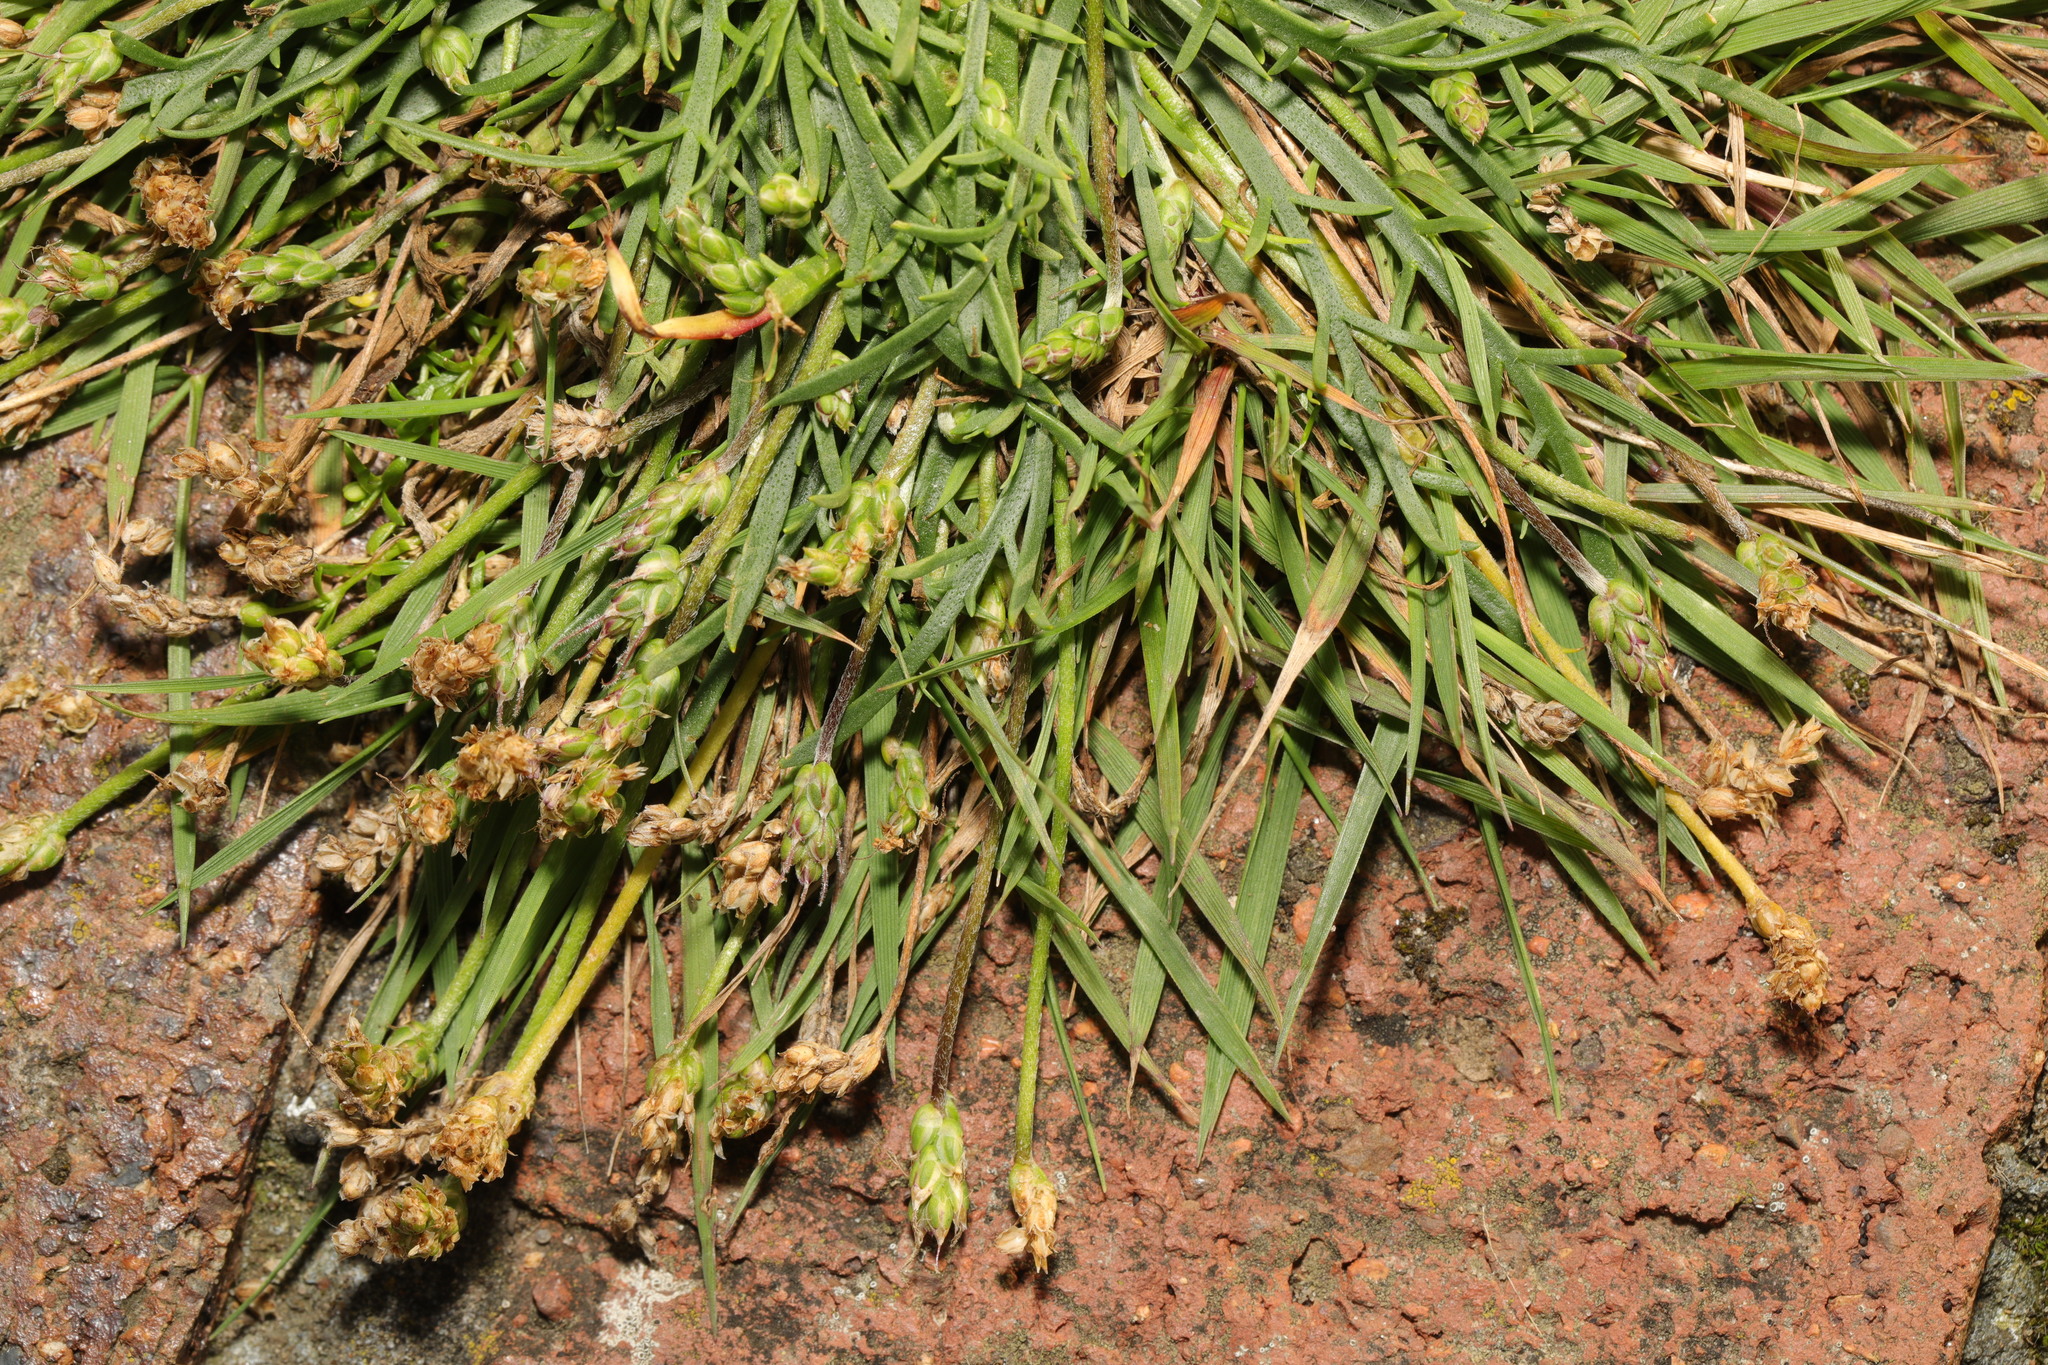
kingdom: Plantae
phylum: Tracheophyta
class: Magnoliopsida
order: Lamiales
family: Plantaginaceae
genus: Plantago
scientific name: Plantago coronopus
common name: Buck's-horn plantain
